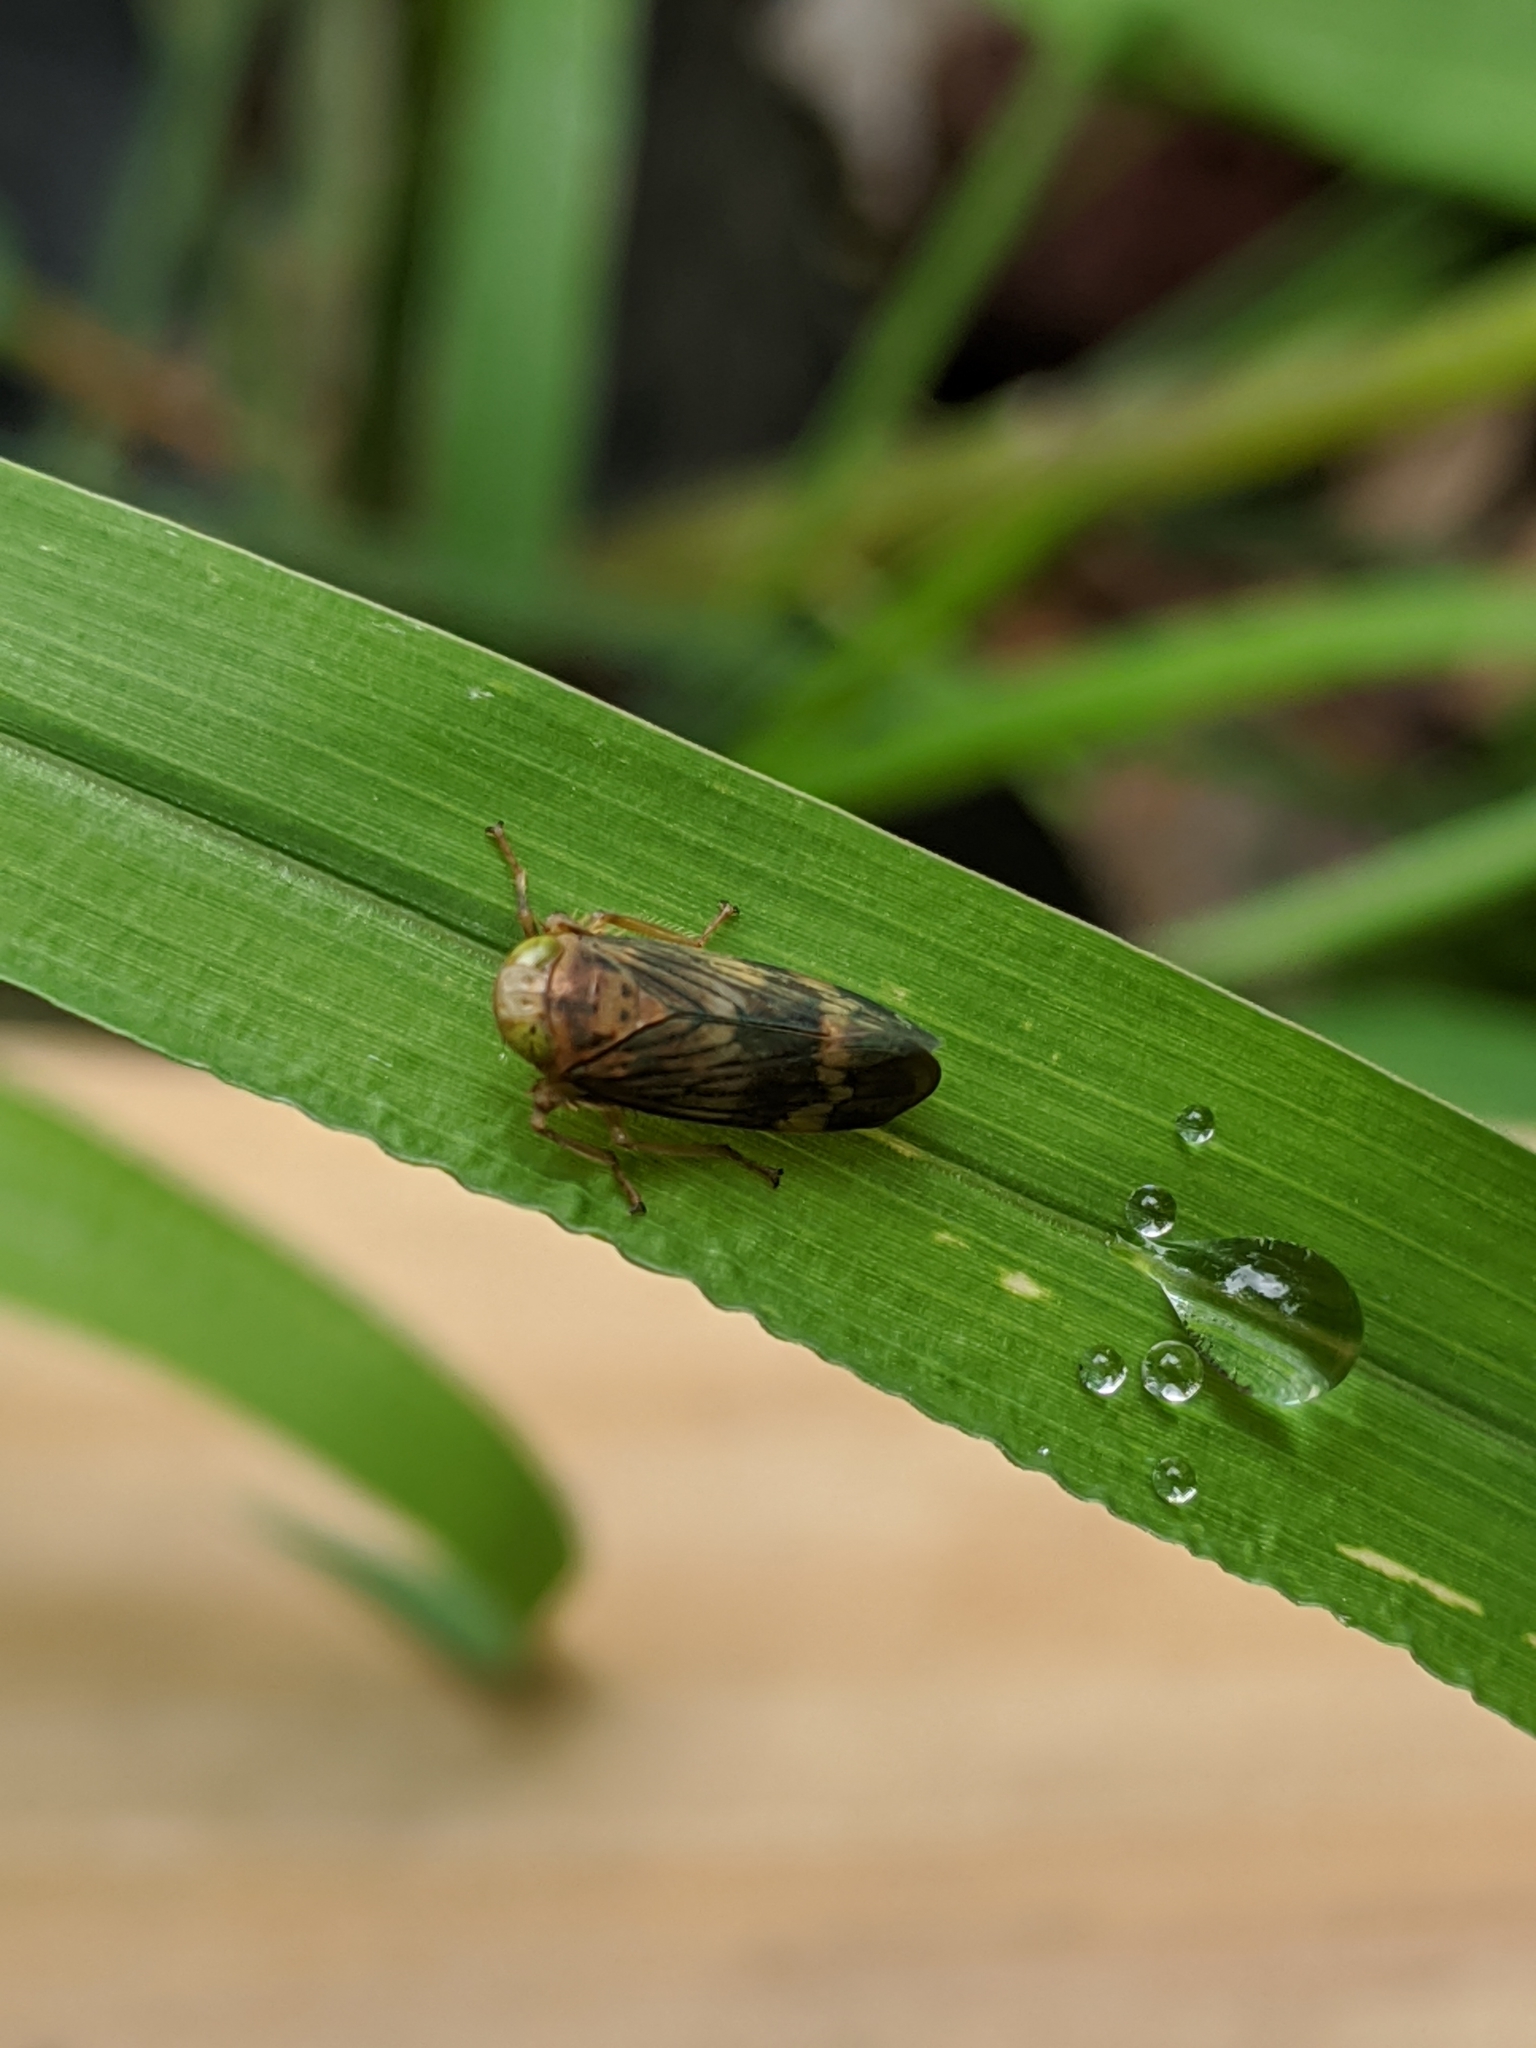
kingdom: Animalia
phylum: Arthropoda
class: Insecta
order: Hemiptera
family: Cicadellidae
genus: Jikradia
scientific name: Jikradia olitoria
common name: Coppery leafhopper
